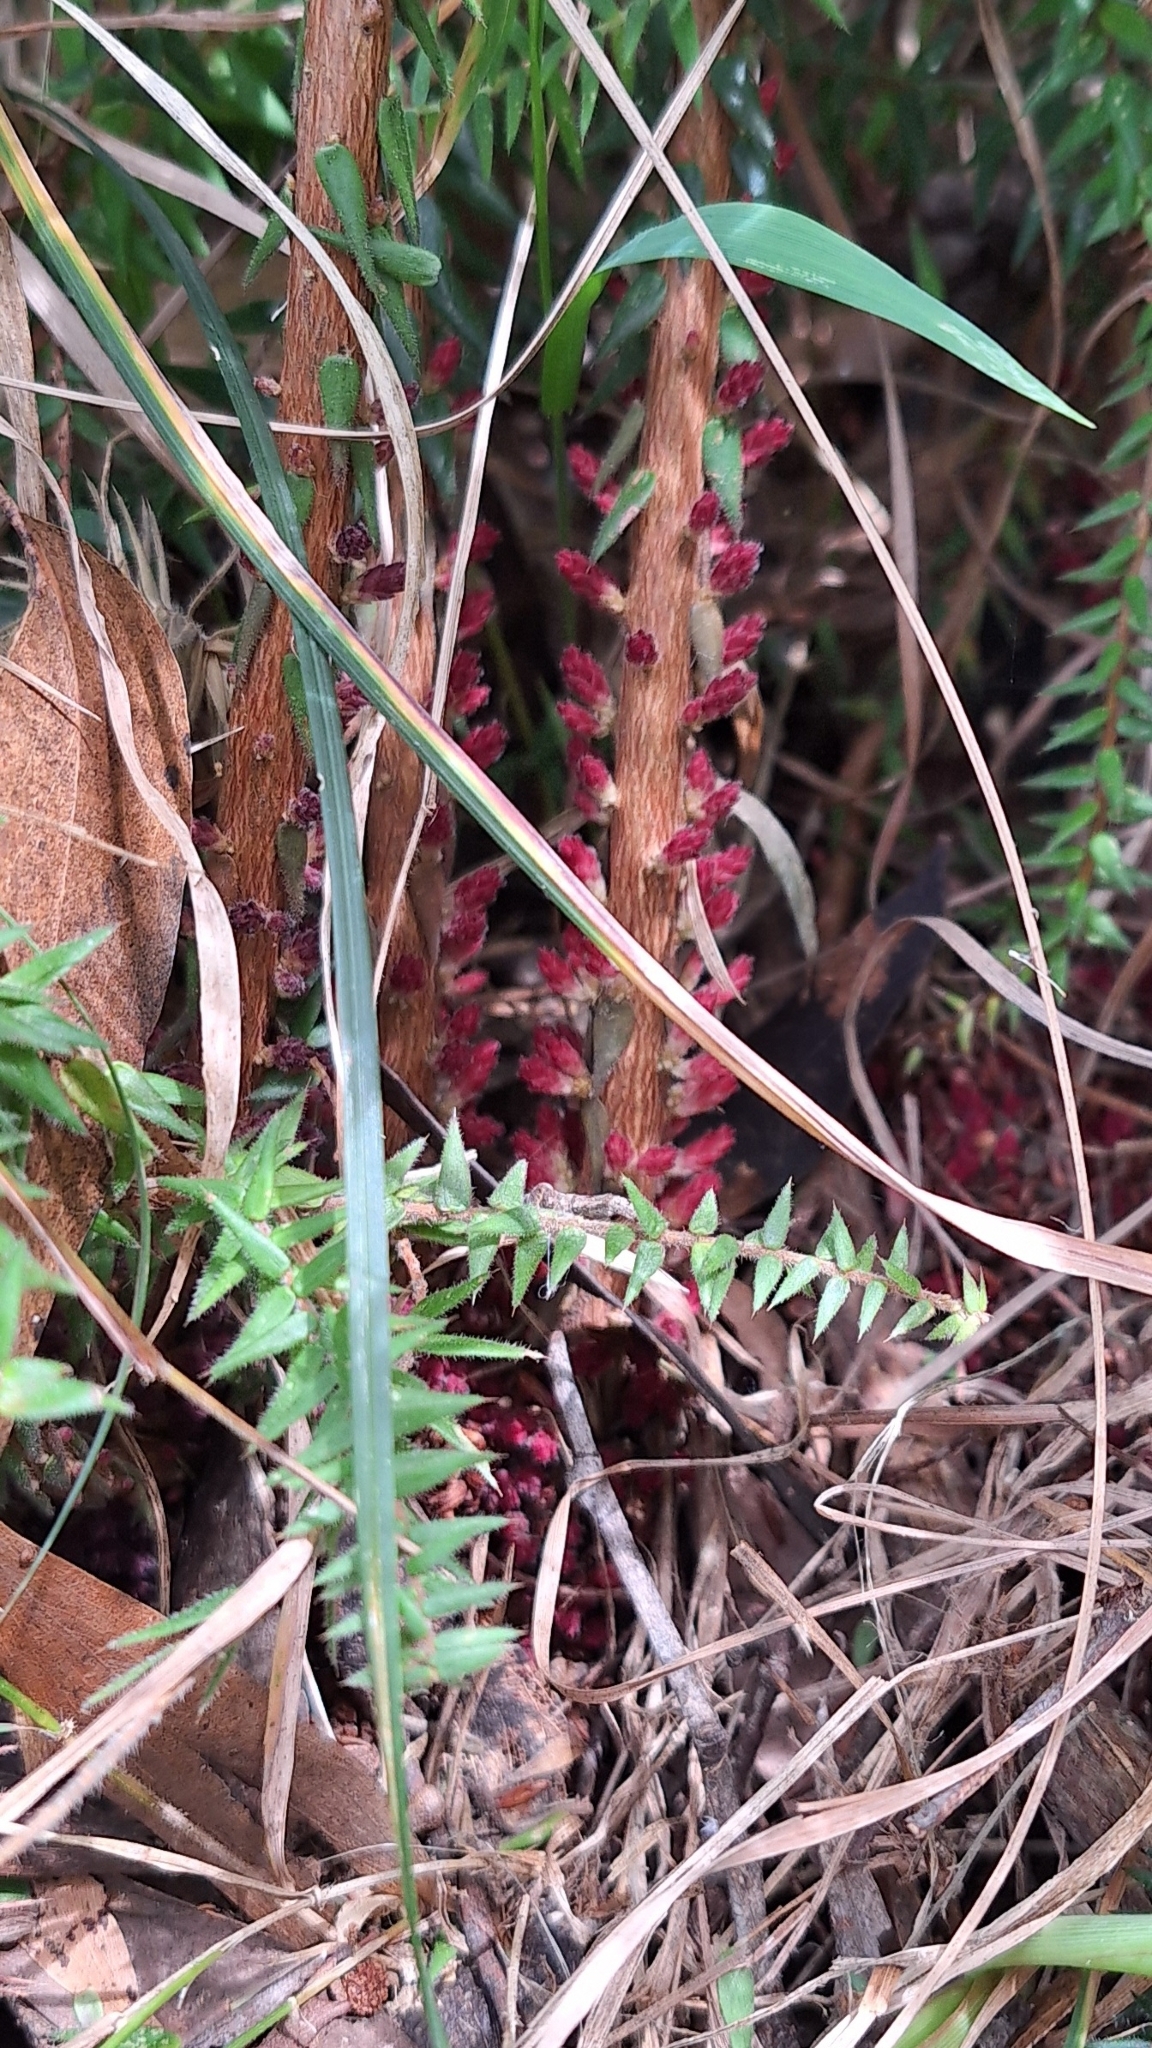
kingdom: Plantae
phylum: Tracheophyta
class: Magnoliopsida
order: Ericales
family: Ericaceae
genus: Acrotriche
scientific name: Acrotriche fasciculiflora
